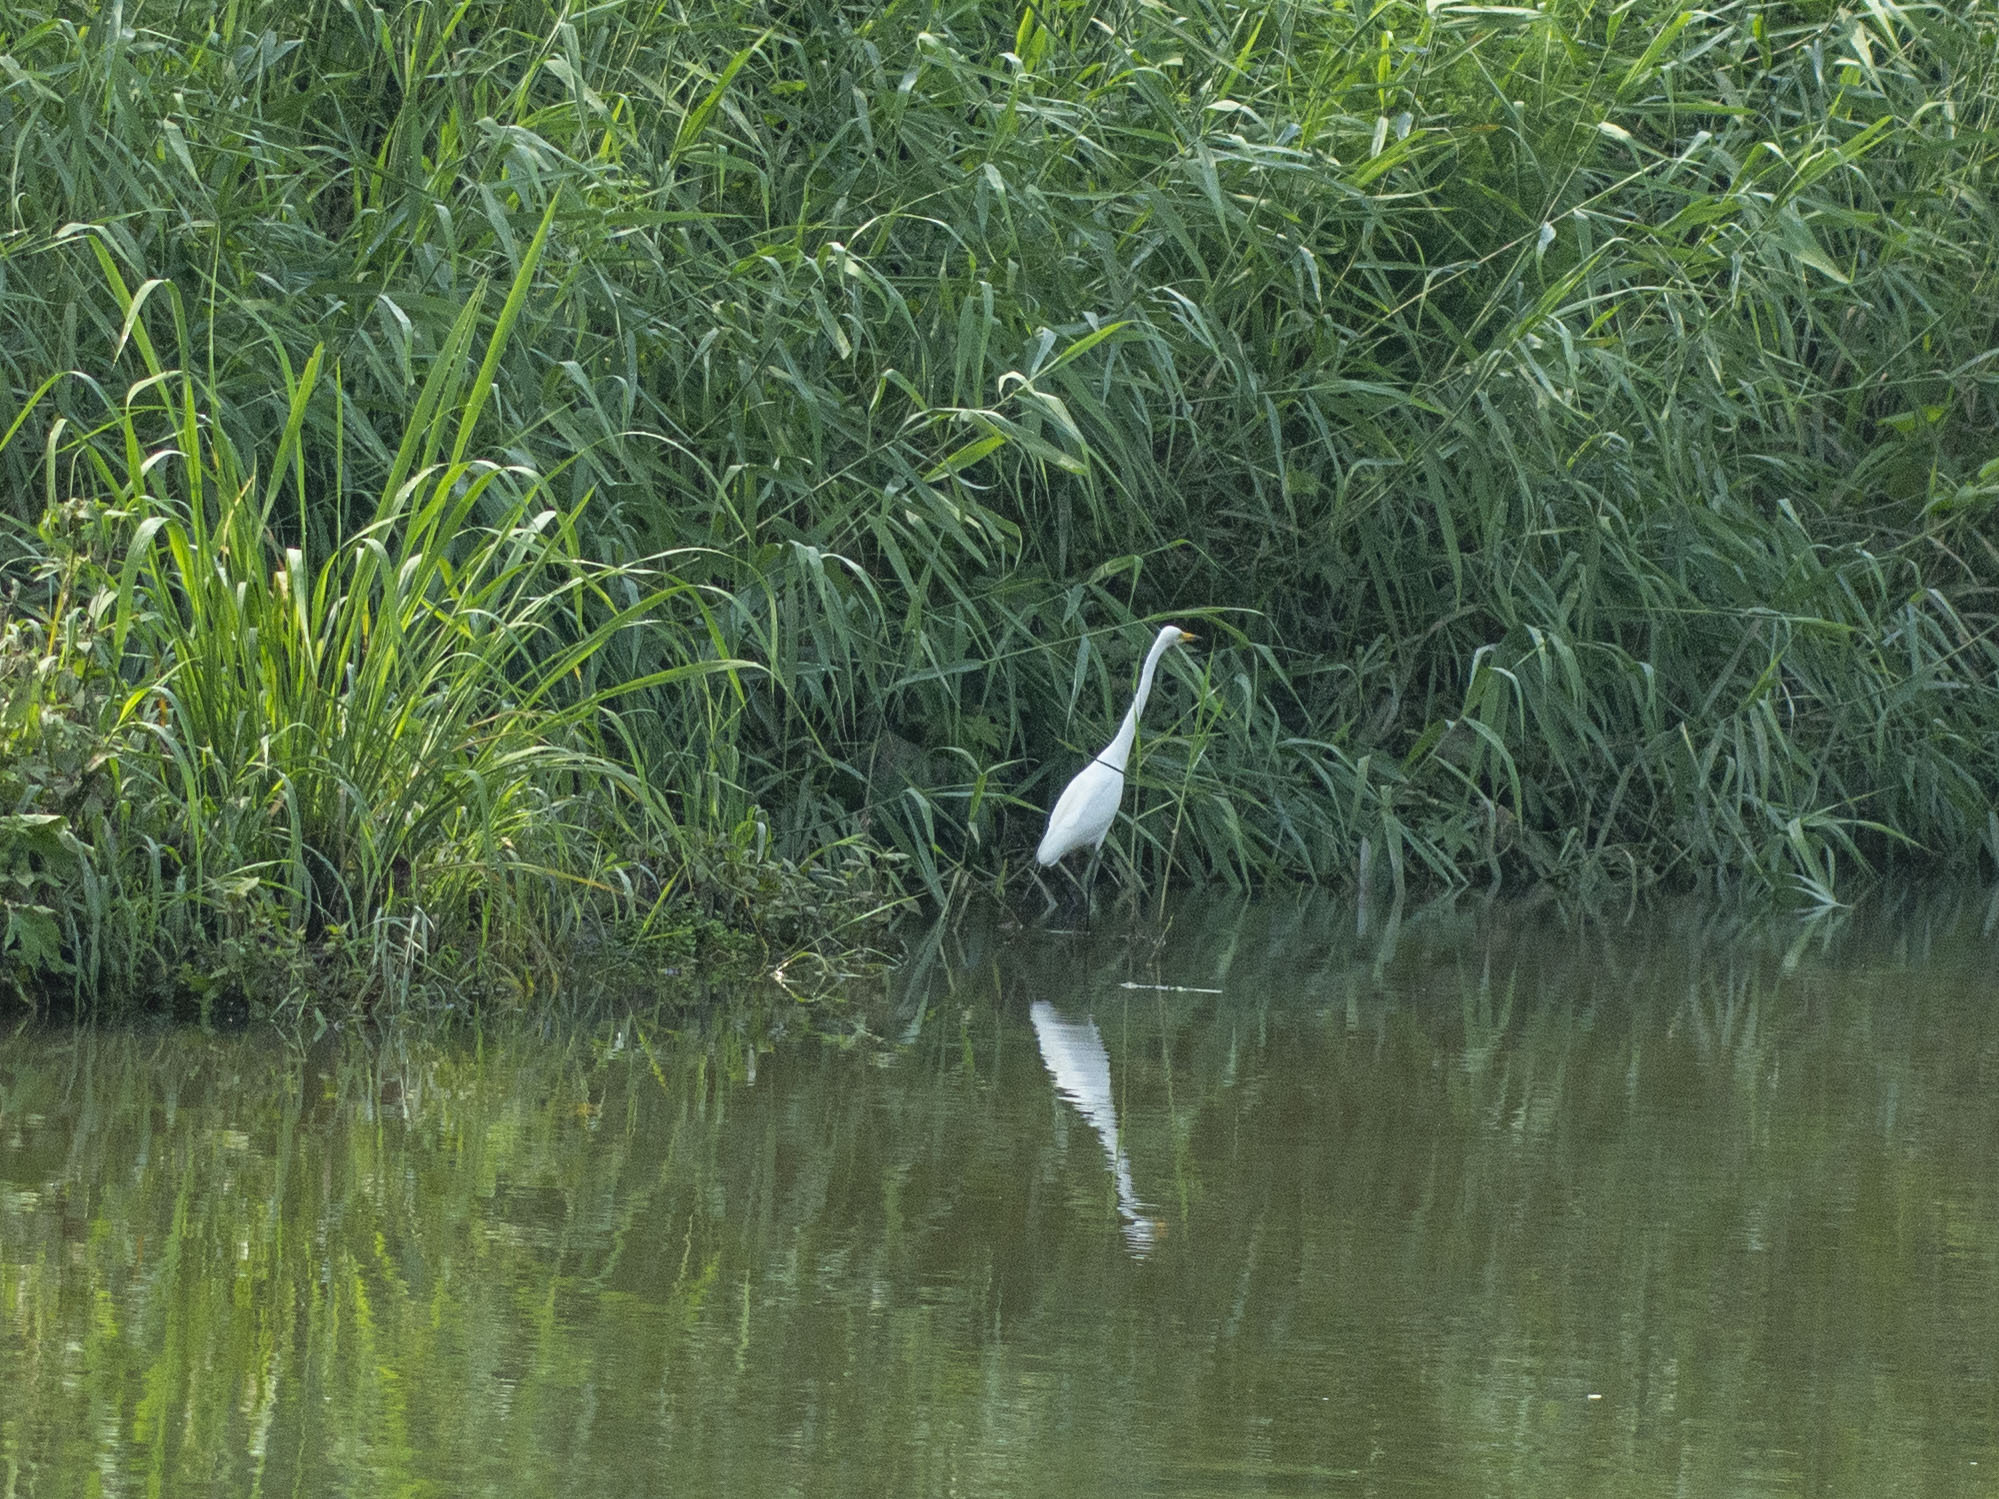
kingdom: Animalia
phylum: Chordata
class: Aves
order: Pelecaniformes
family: Ardeidae
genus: Ardea
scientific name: Ardea alba
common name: Great egret
